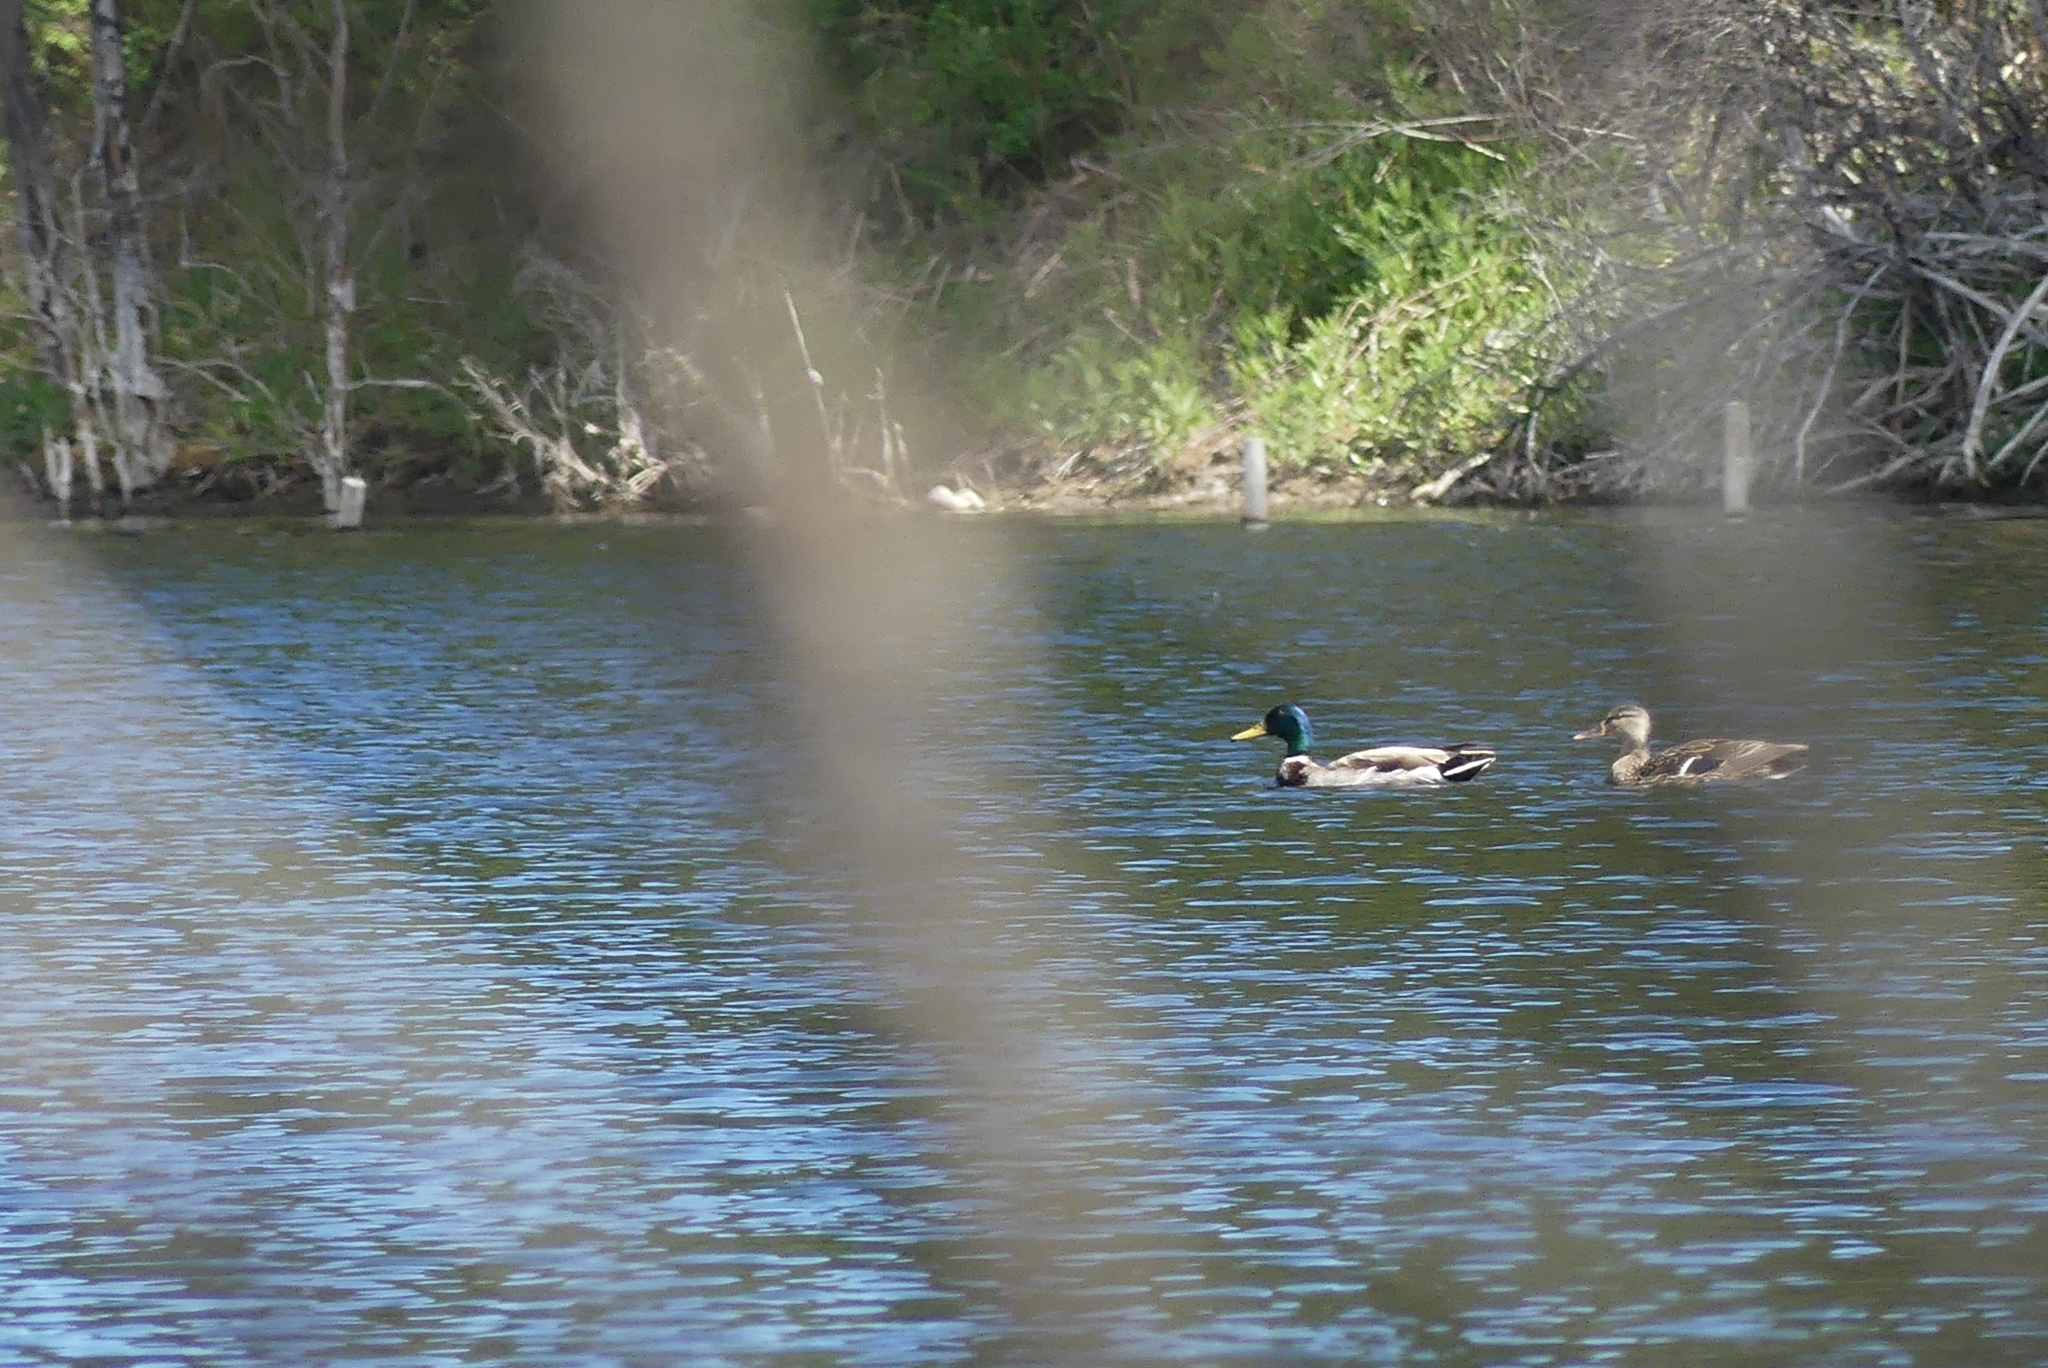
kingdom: Animalia
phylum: Chordata
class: Aves
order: Anseriformes
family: Anatidae
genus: Anas
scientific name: Anas platyrhynchos
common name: Mallard
